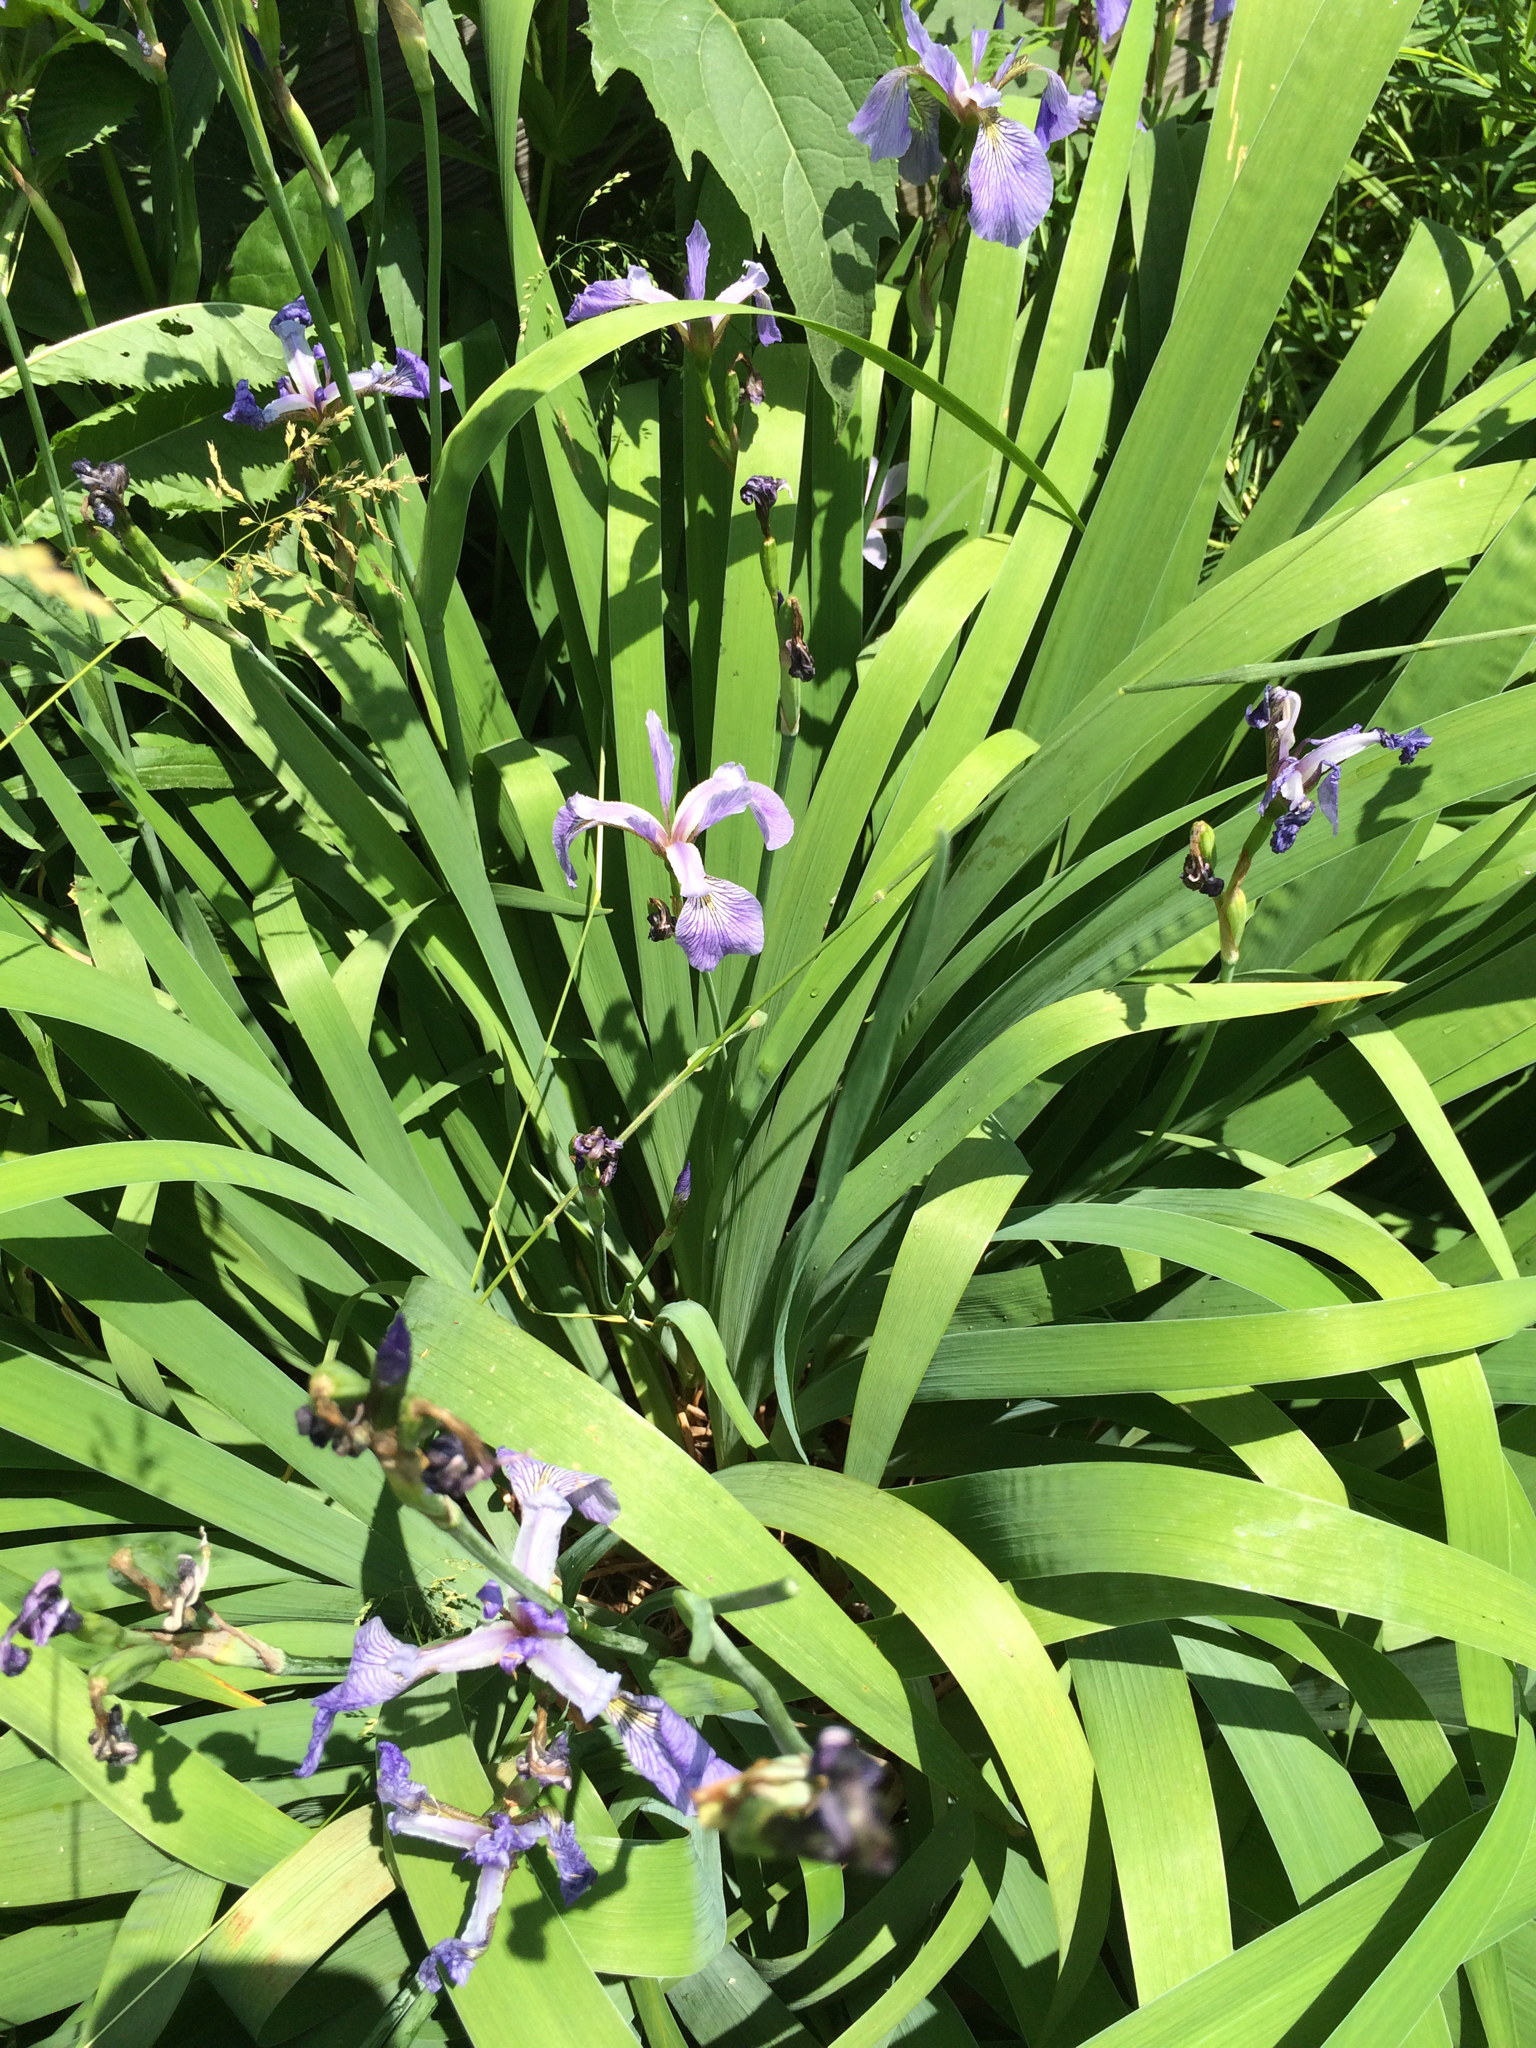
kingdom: Plantae
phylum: Tracheophyta
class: Liliopsida
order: Asparagales
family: Iridaceae
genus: Iris
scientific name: Iris versicolor
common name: Purple iris
